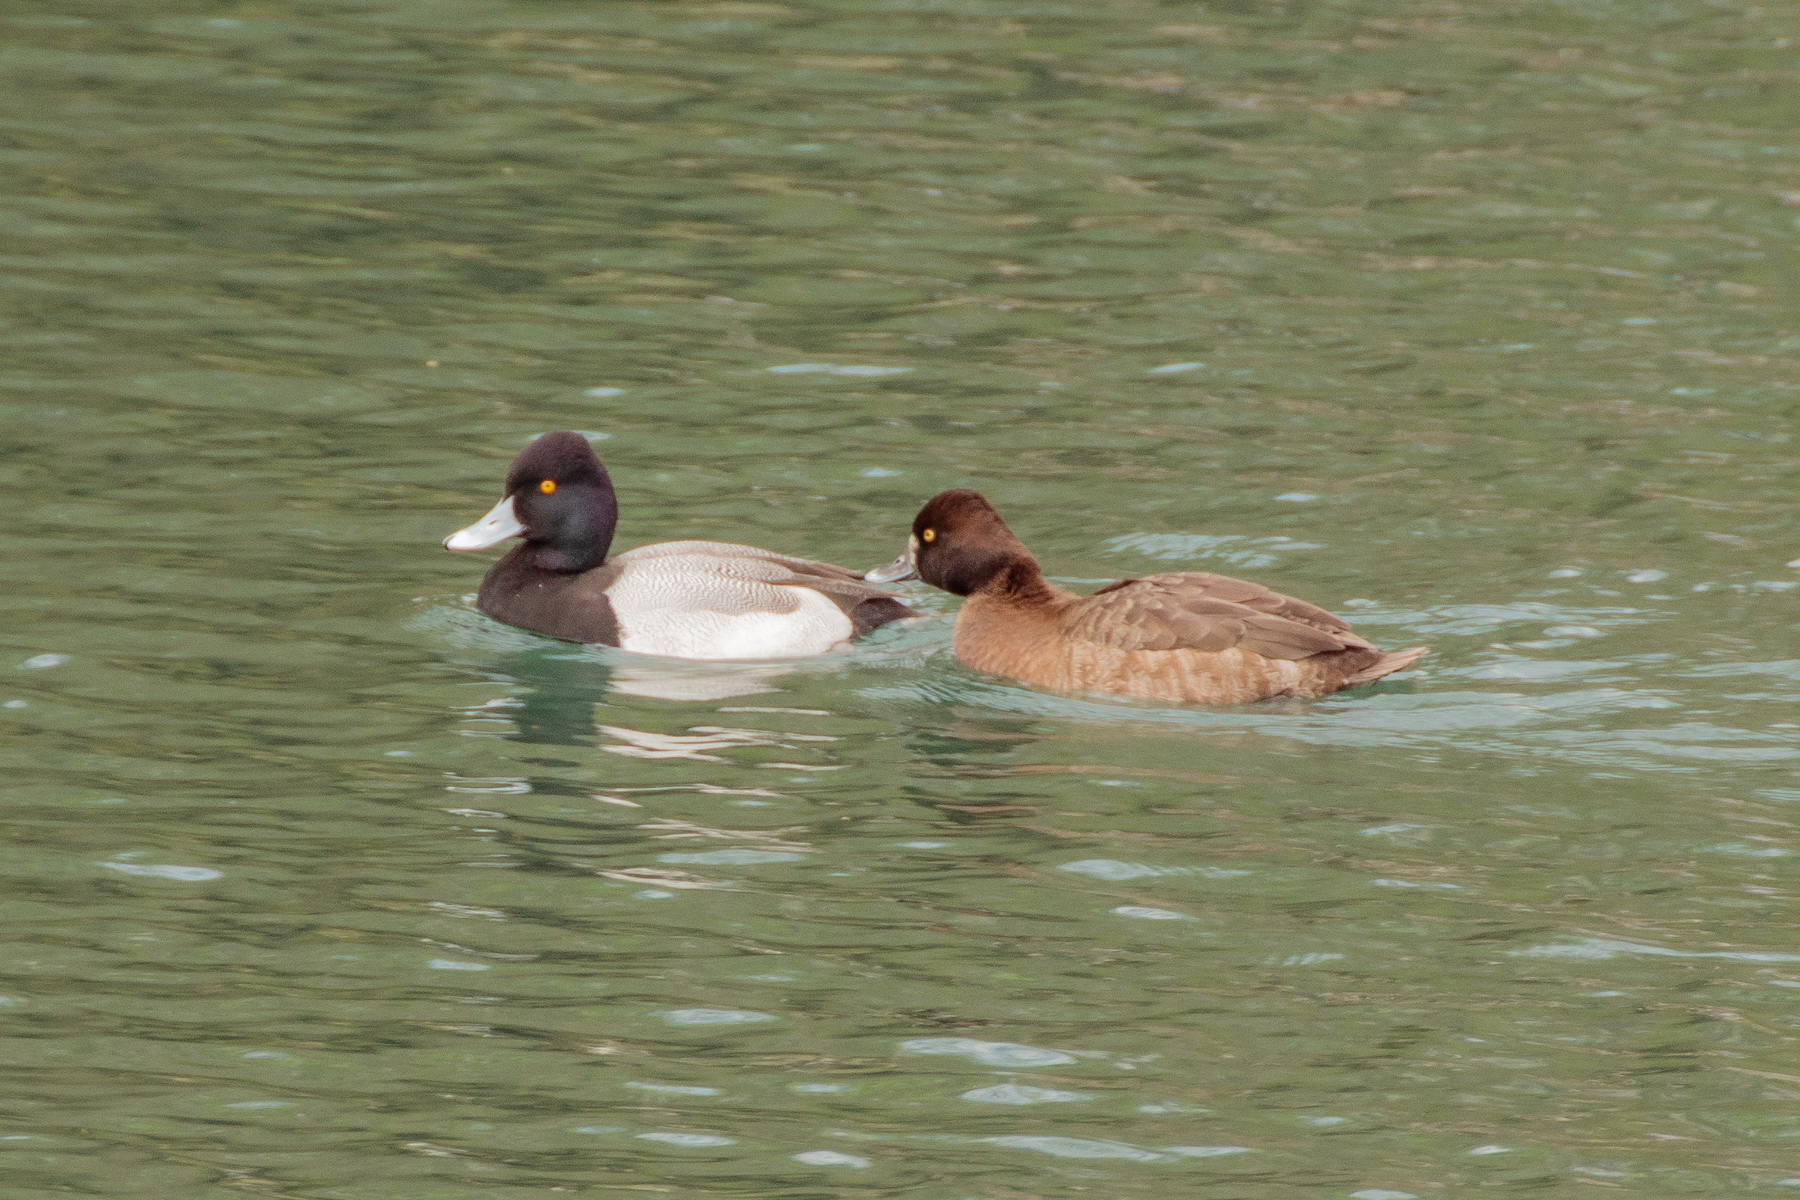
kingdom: Animalia
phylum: Chordata
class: Aves
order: Anseriformes
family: Anatidae
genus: Aythya
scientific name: Aythya affinis
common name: Lesser scaup
